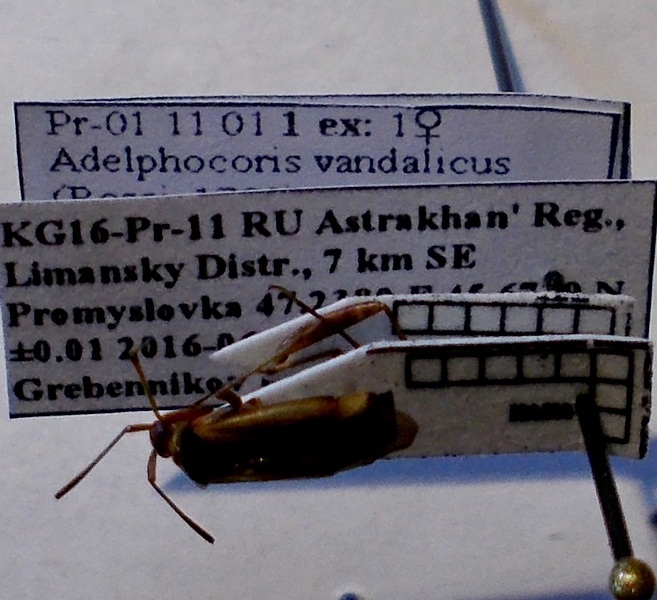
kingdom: Animalia
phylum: Arthropoda
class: Insecta
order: Hemiptera
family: Miridae
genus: Adelphocoris
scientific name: Adelphocoris vandalicus
